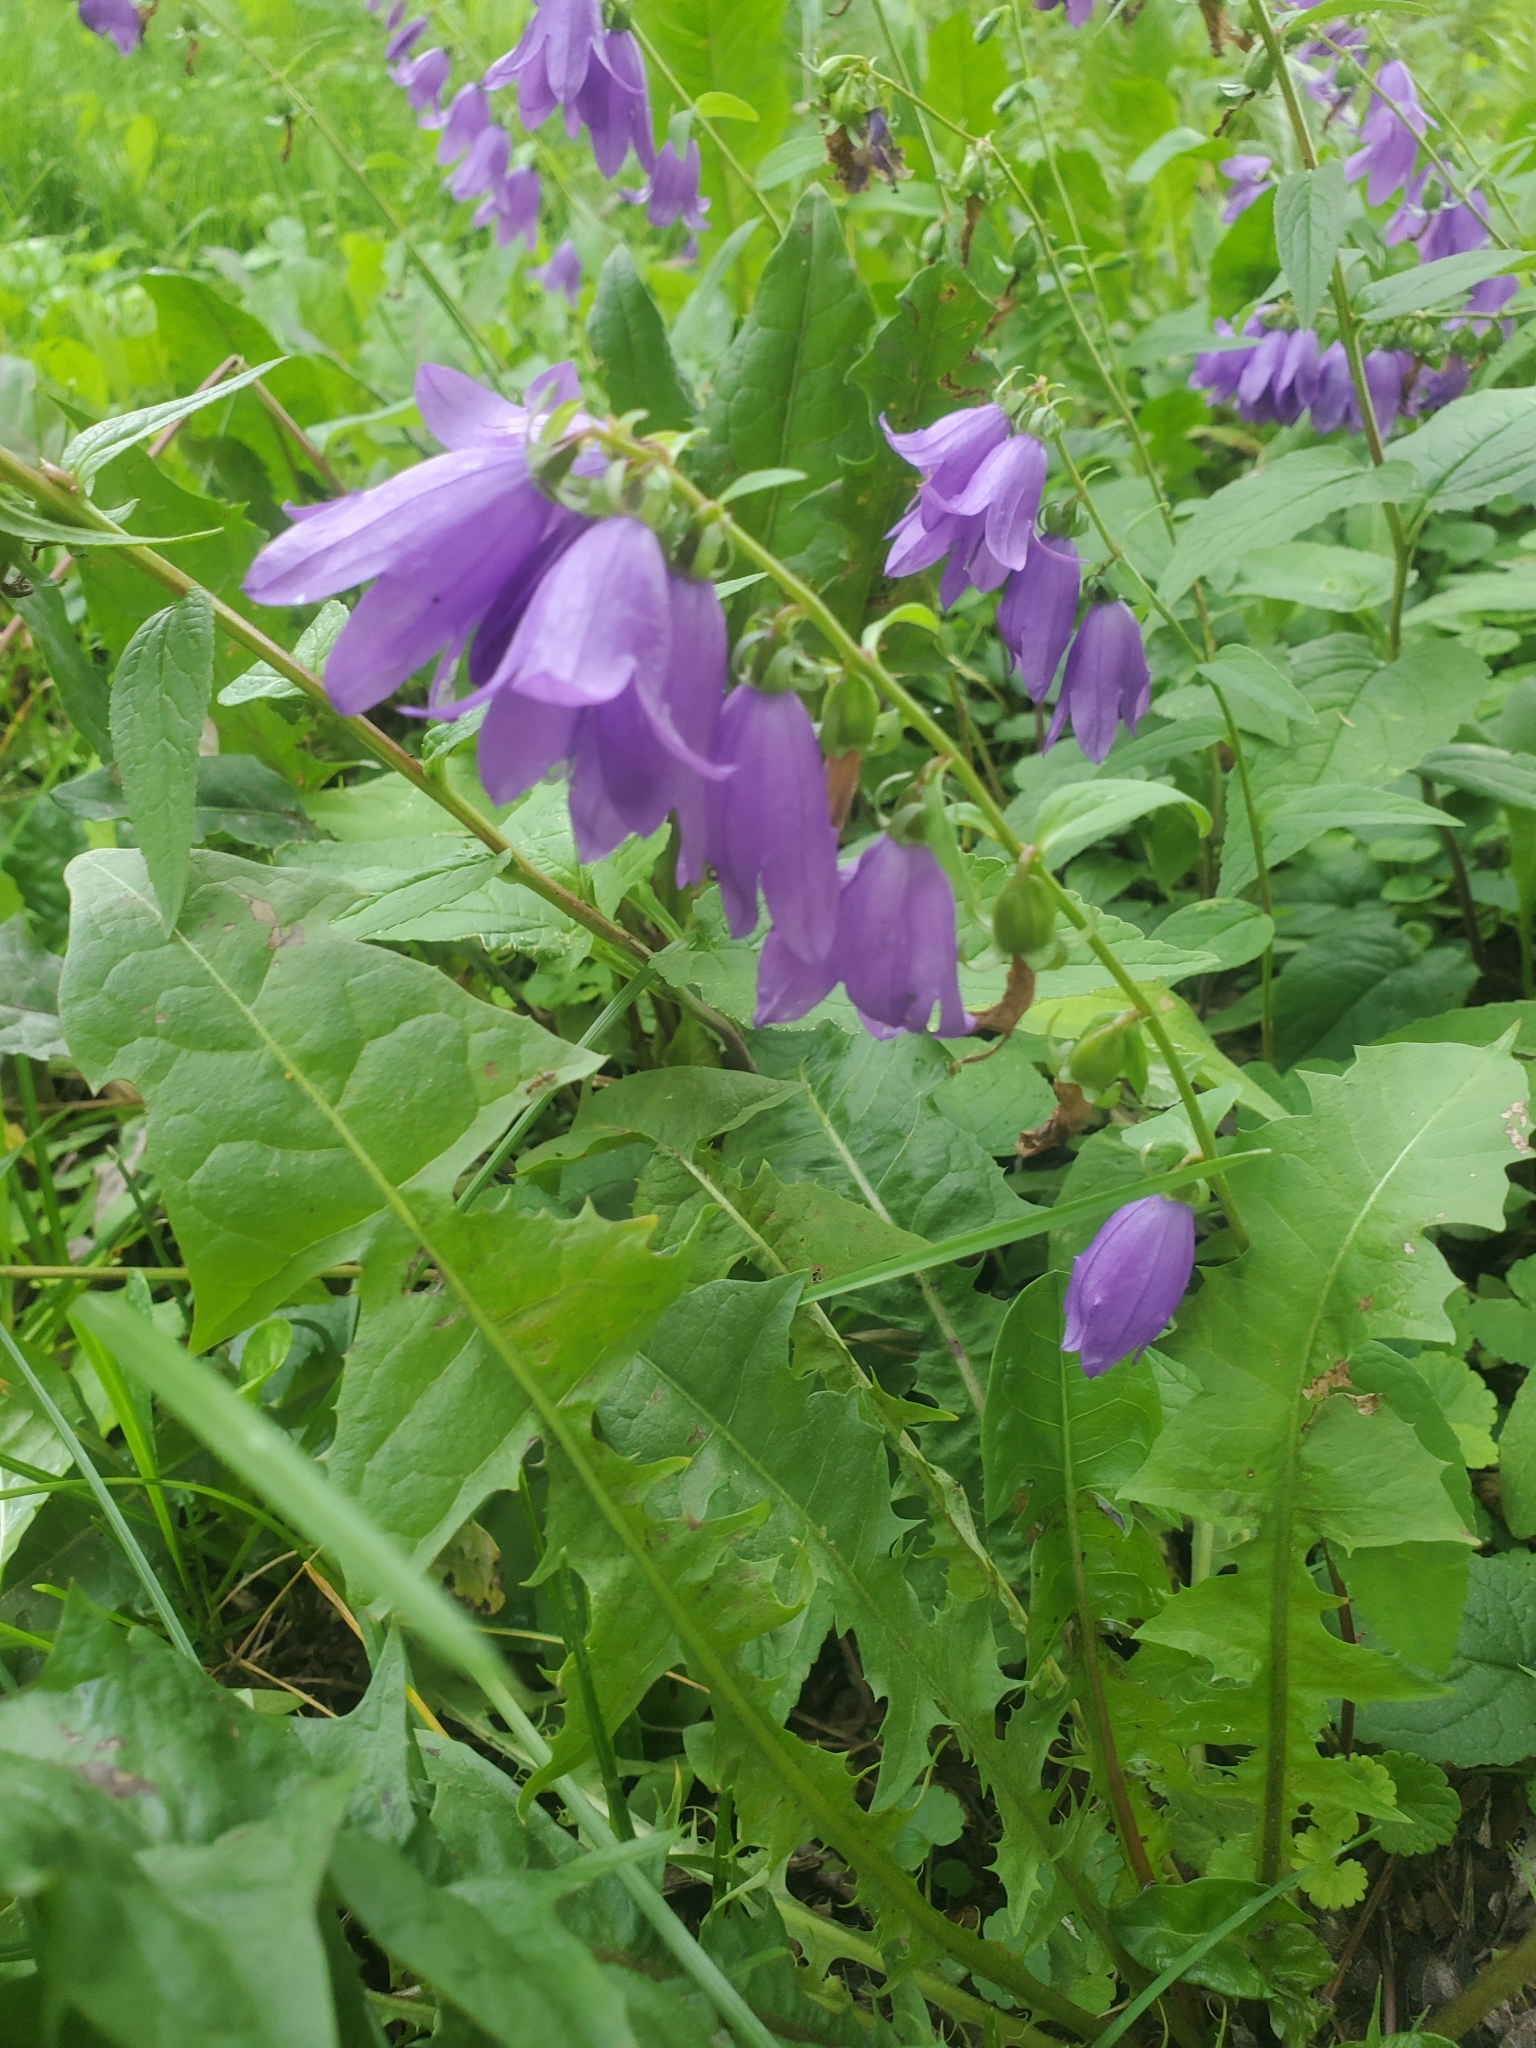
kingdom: Plantae
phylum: Tracheophyta
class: Magnoliopsida
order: Asterales
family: Campanulaceae
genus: Campanula
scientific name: Campanula rapunculoides
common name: Creeping bellflower
